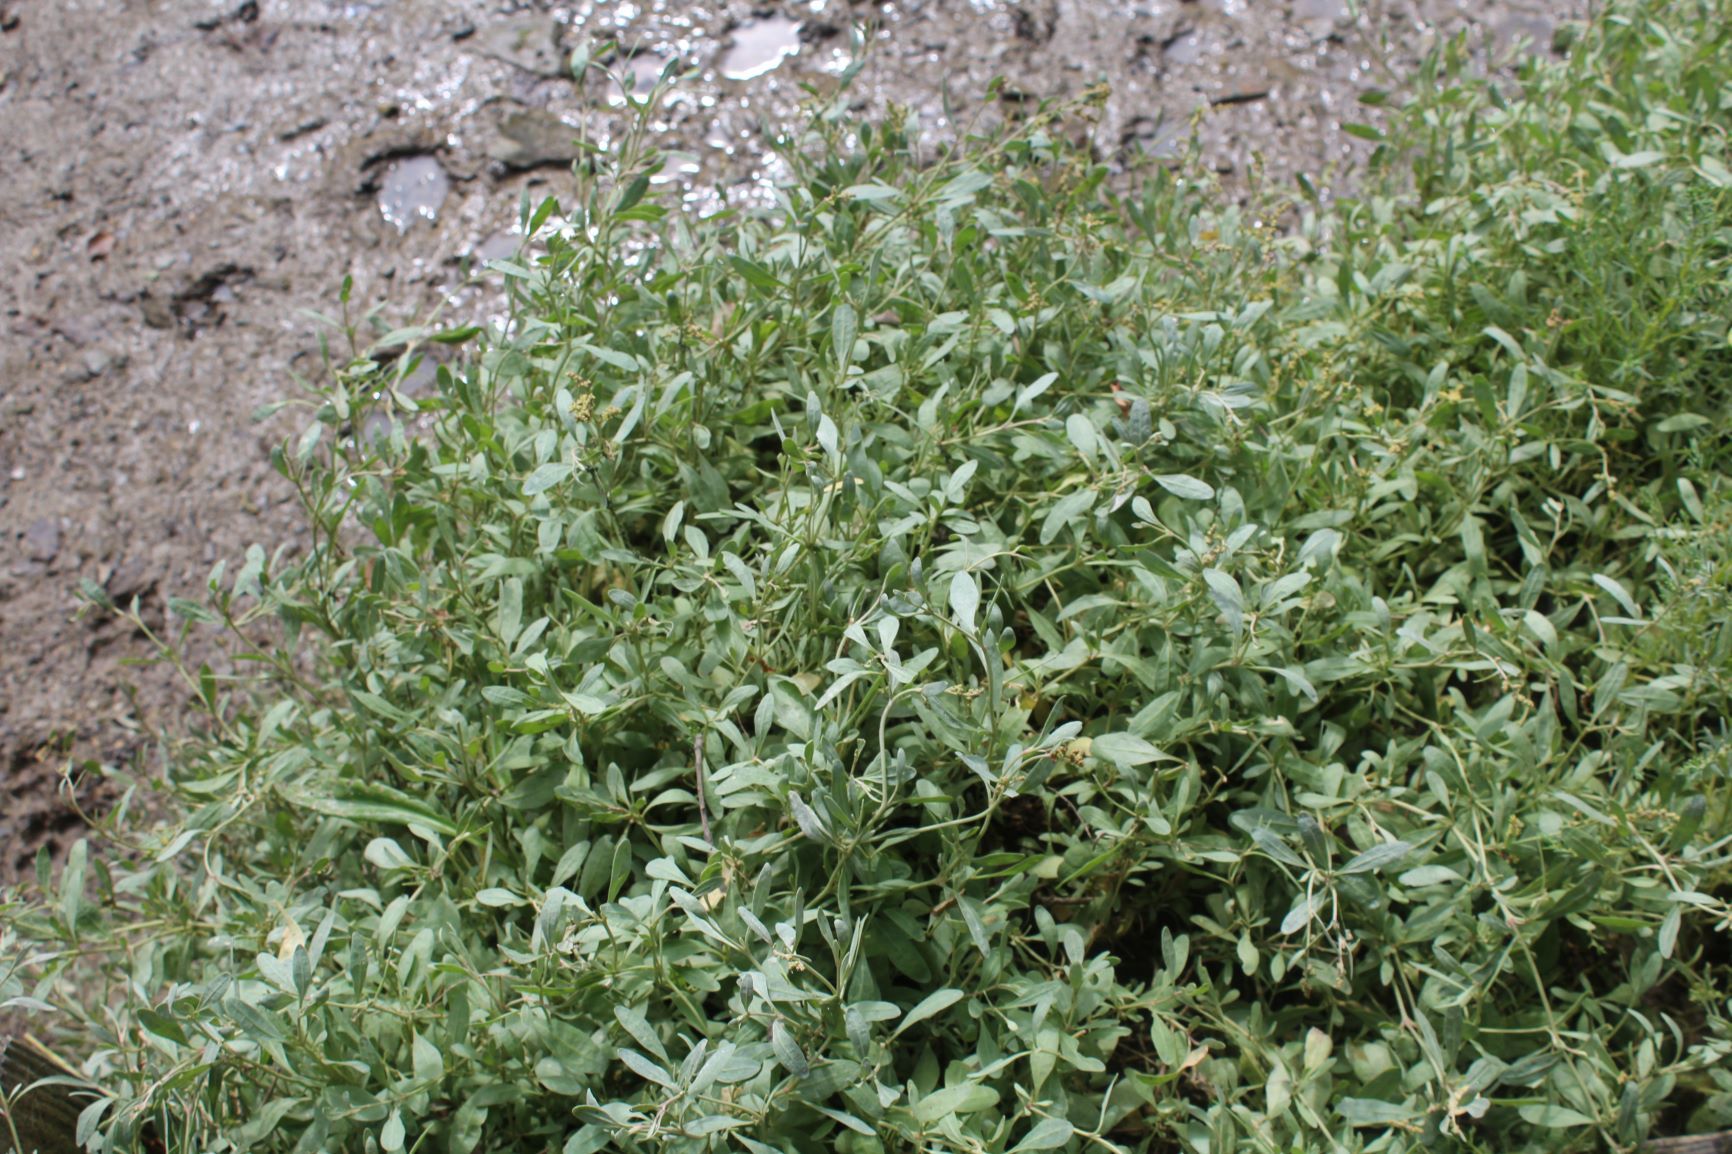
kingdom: Plantae
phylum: Tracheophyta
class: Magnoliopsida
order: Caryophyllales
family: Amaranthaceae
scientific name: Amaranthaceae
